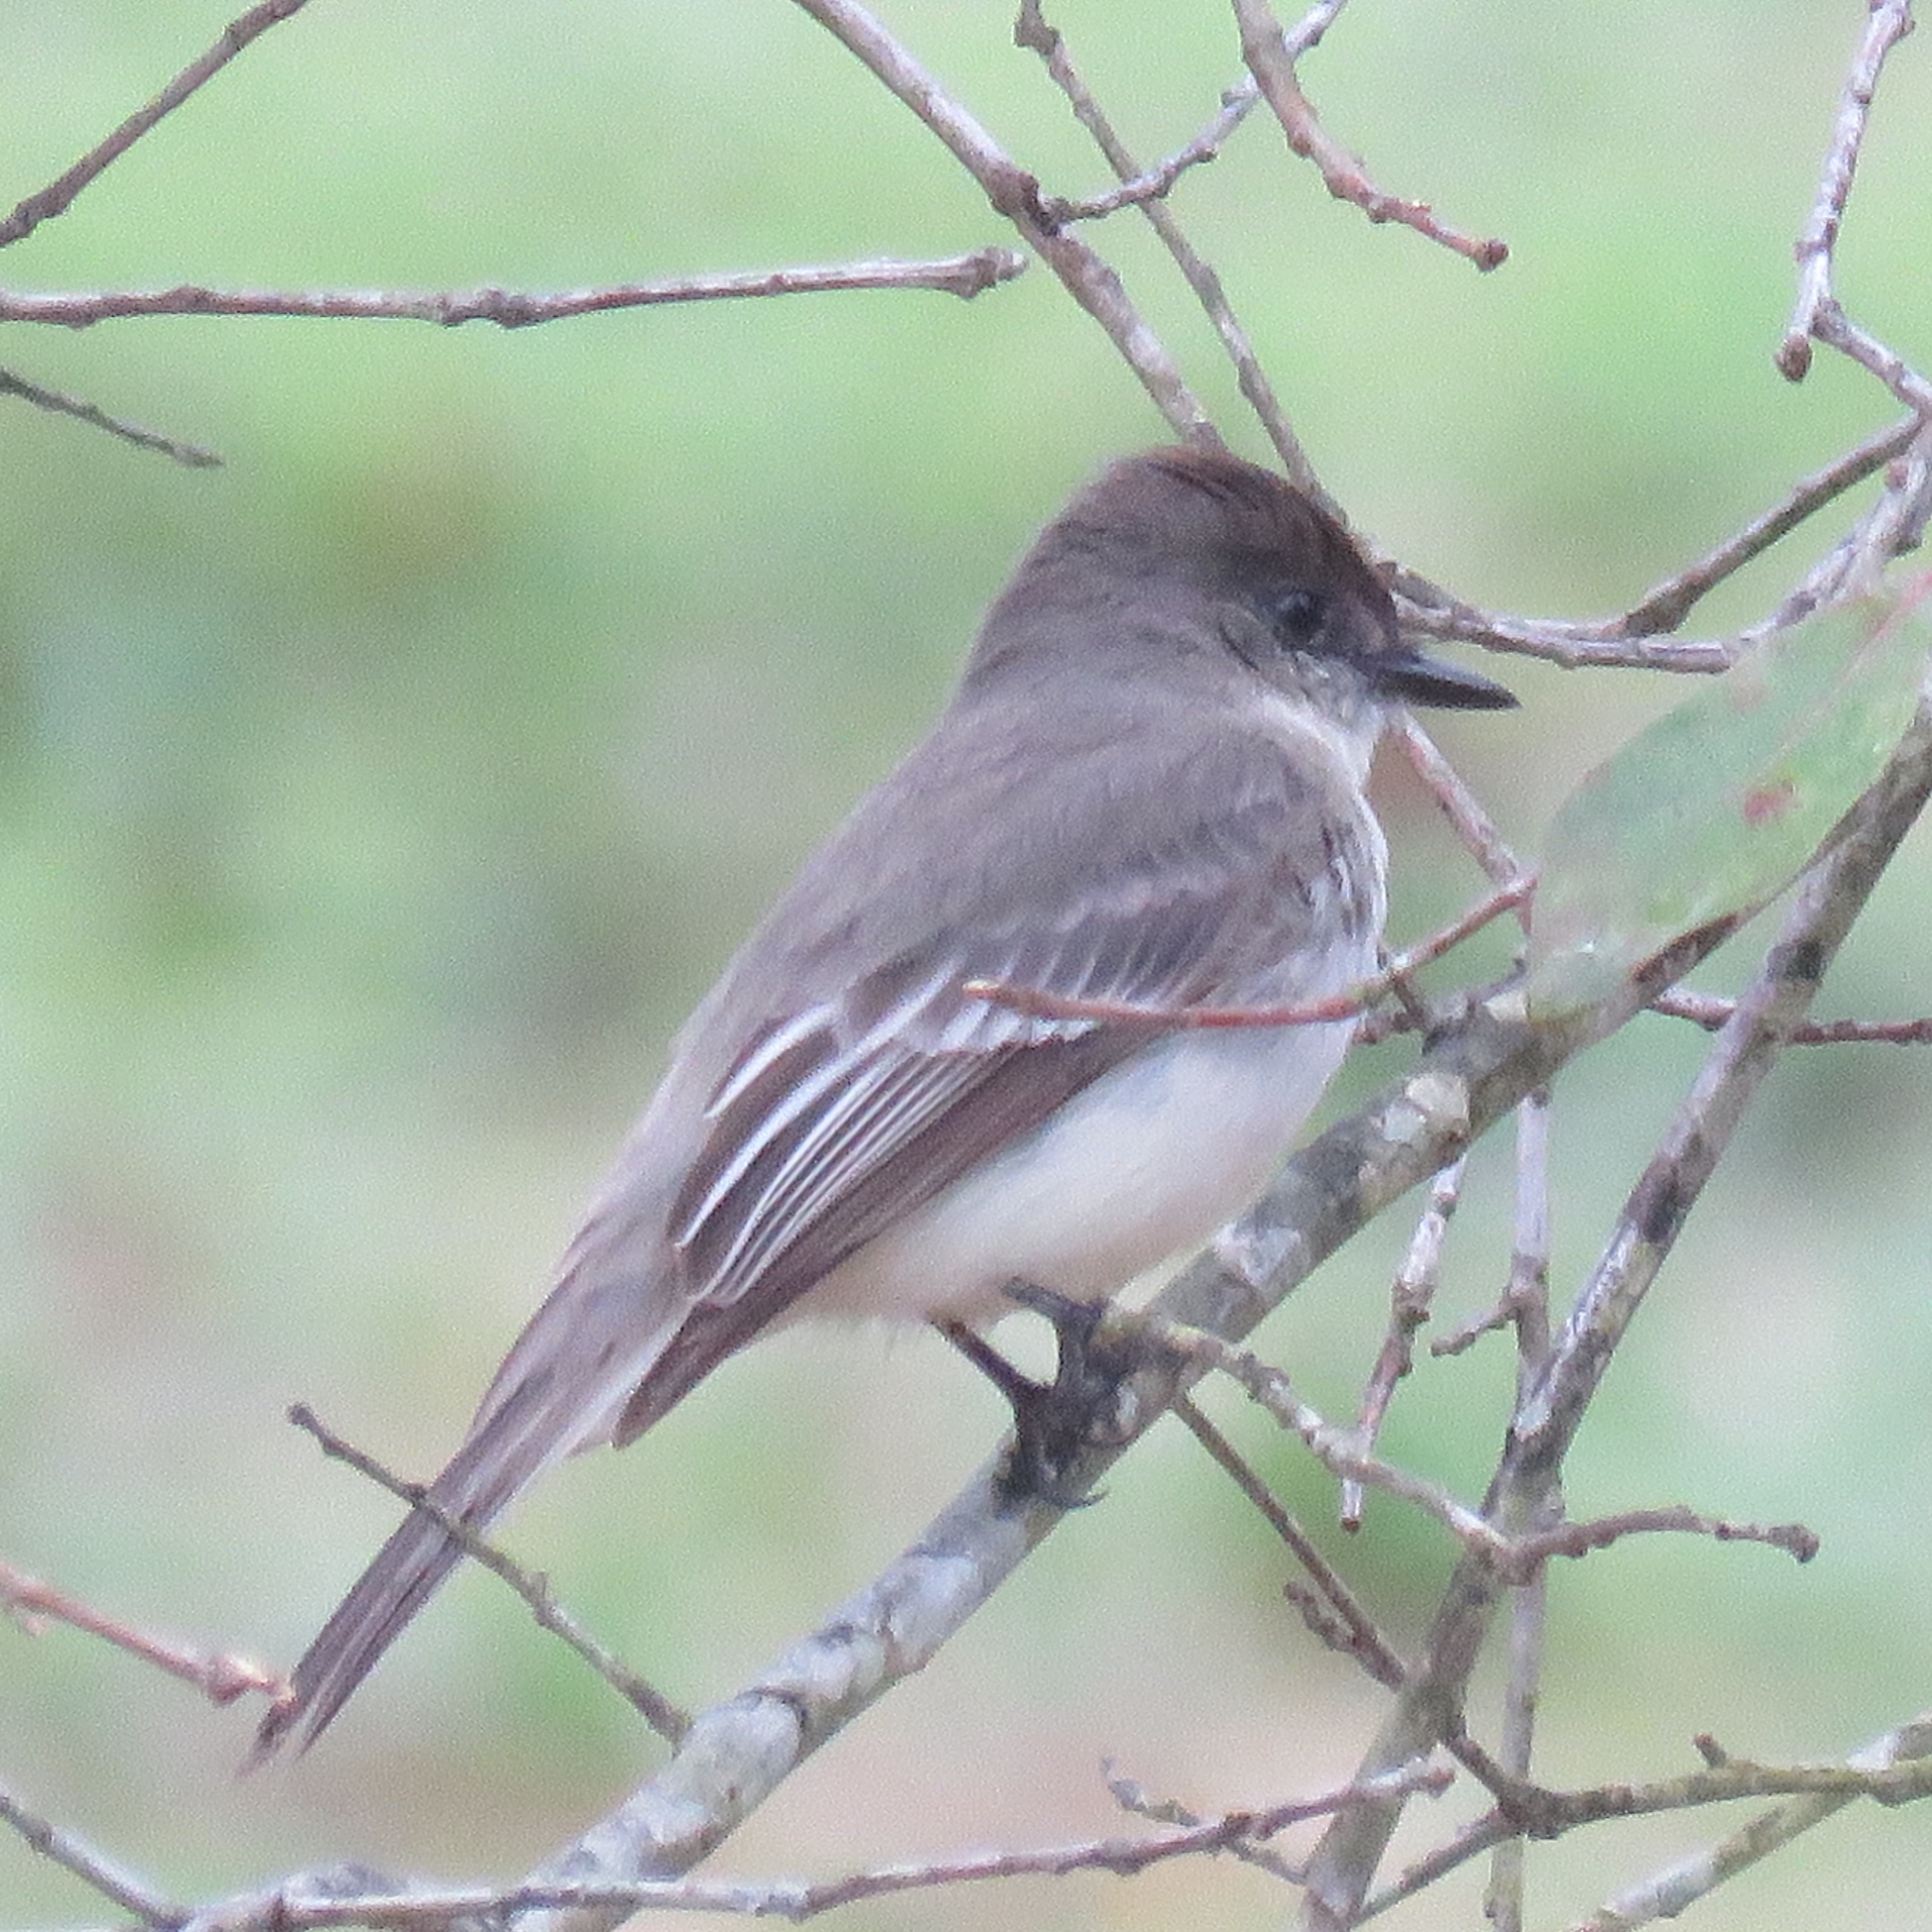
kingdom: Animalia
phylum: Chordata
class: Aves
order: Passeriformes
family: Tyrannidae
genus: Sayornis
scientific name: Sayornis phoebe
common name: Eastern phoebe
